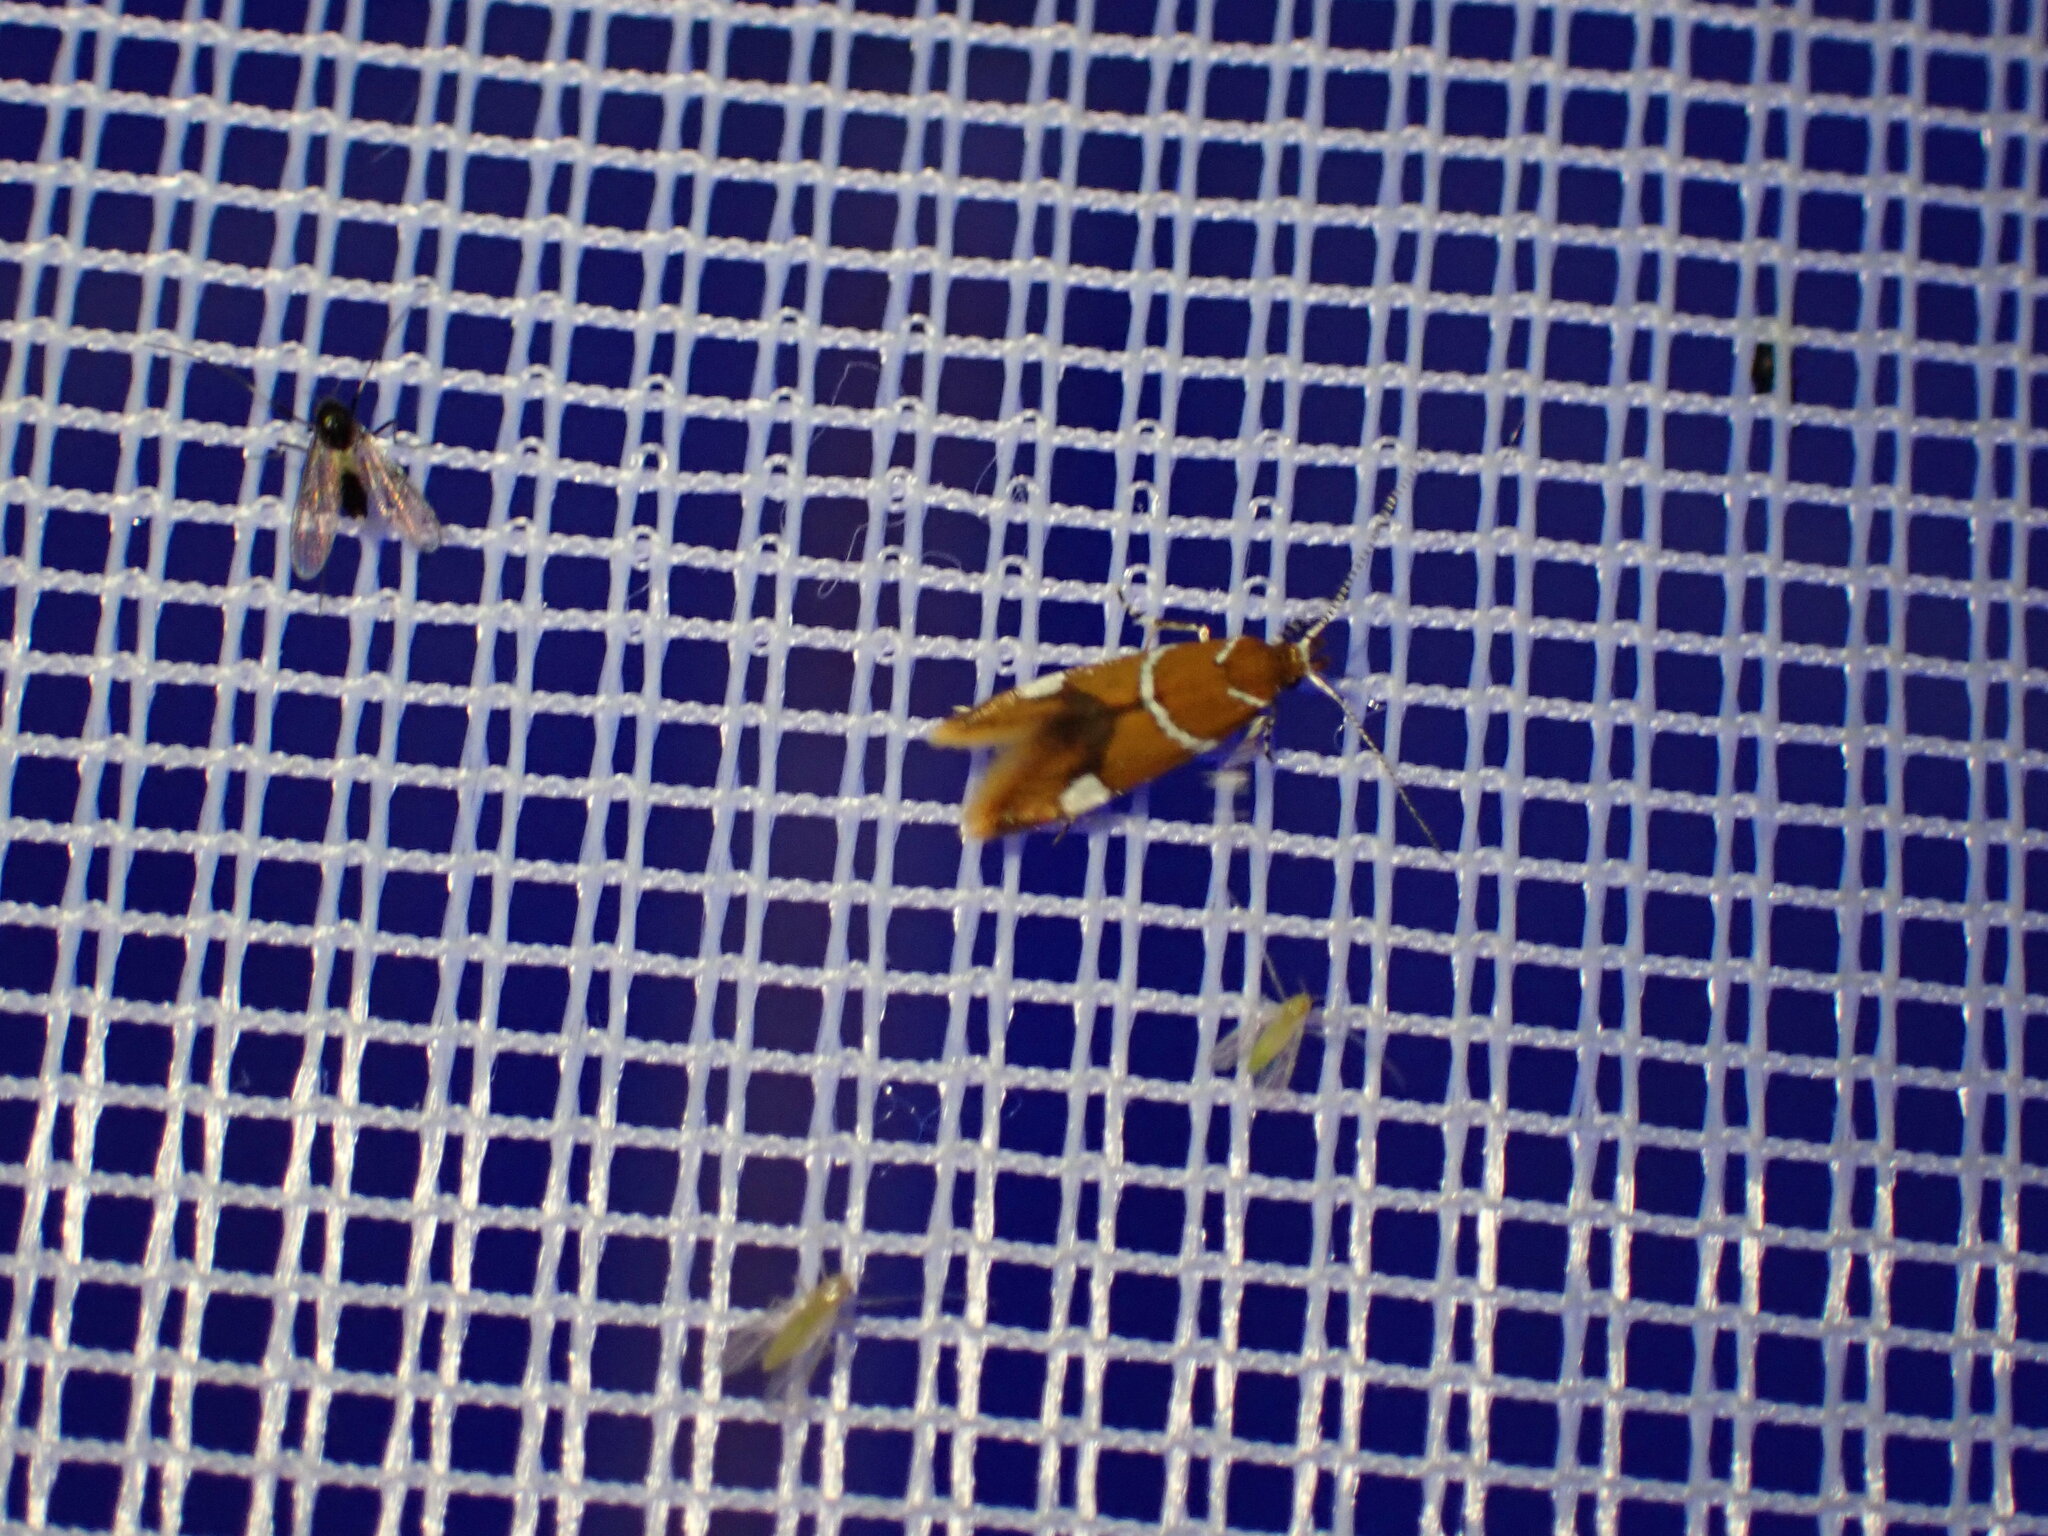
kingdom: Animalia
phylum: Arthropoda
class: Insecta
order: Lepidoptera
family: Oecophoridae
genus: Promalactis
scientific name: Promalactis suzukiella
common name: Moth
